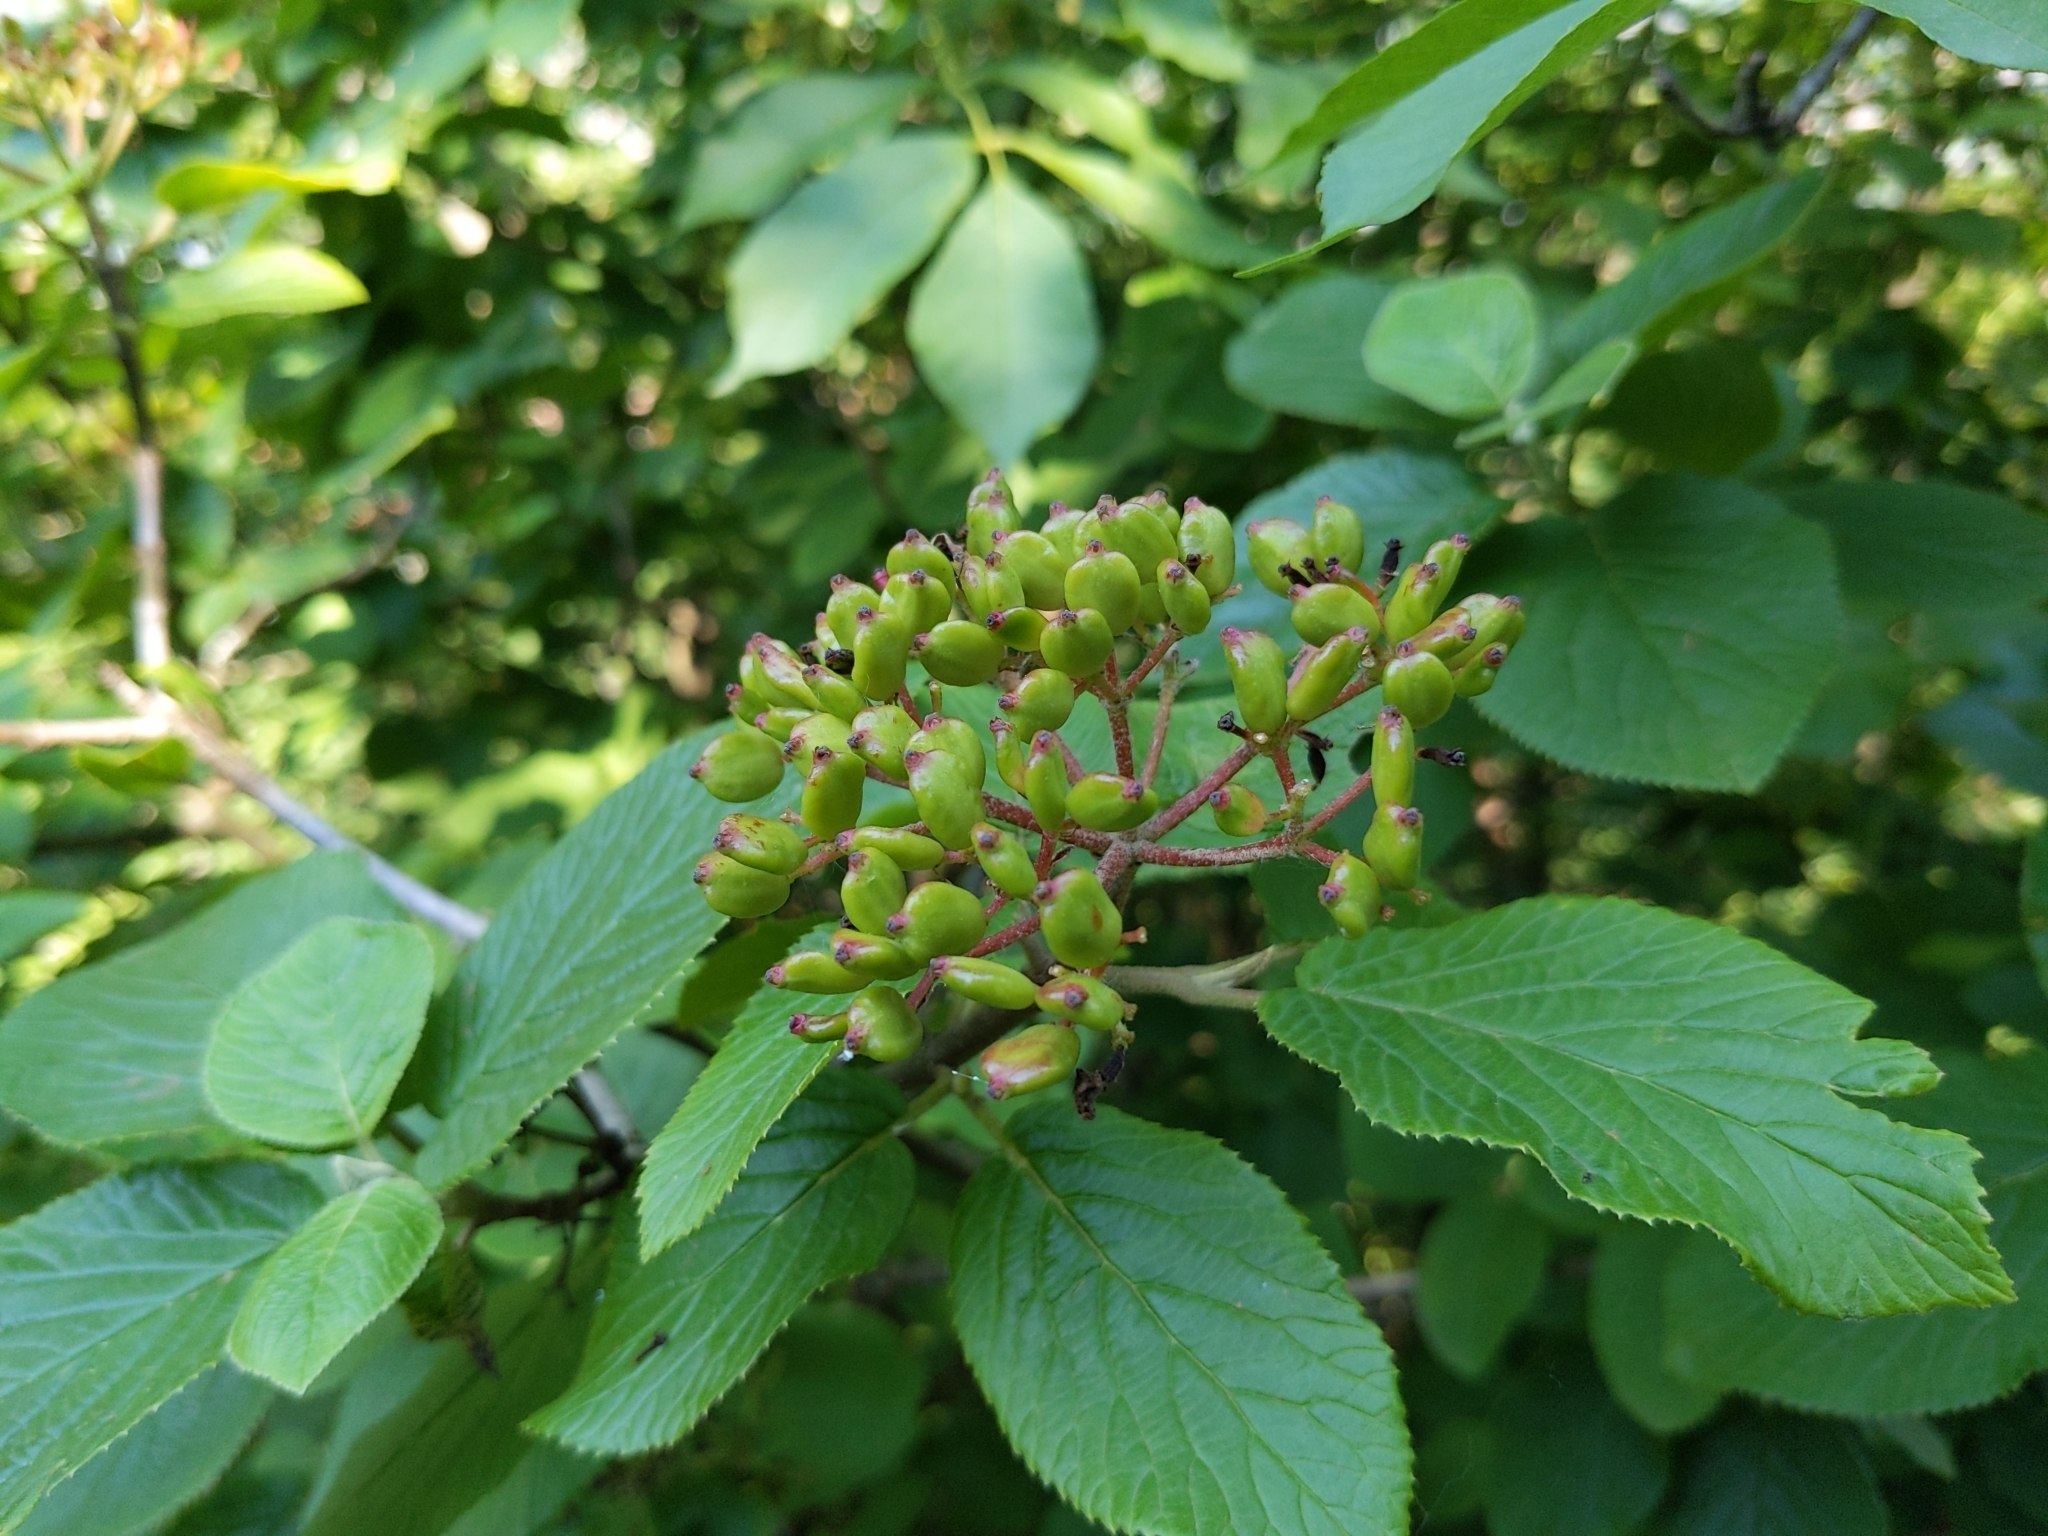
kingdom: Plantae
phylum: Tracheophyta
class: Magnoliopsida
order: Dipsacales
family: Viburnaceae
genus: Viburnum
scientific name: Viburnum lantana
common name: Wayfaring tree
